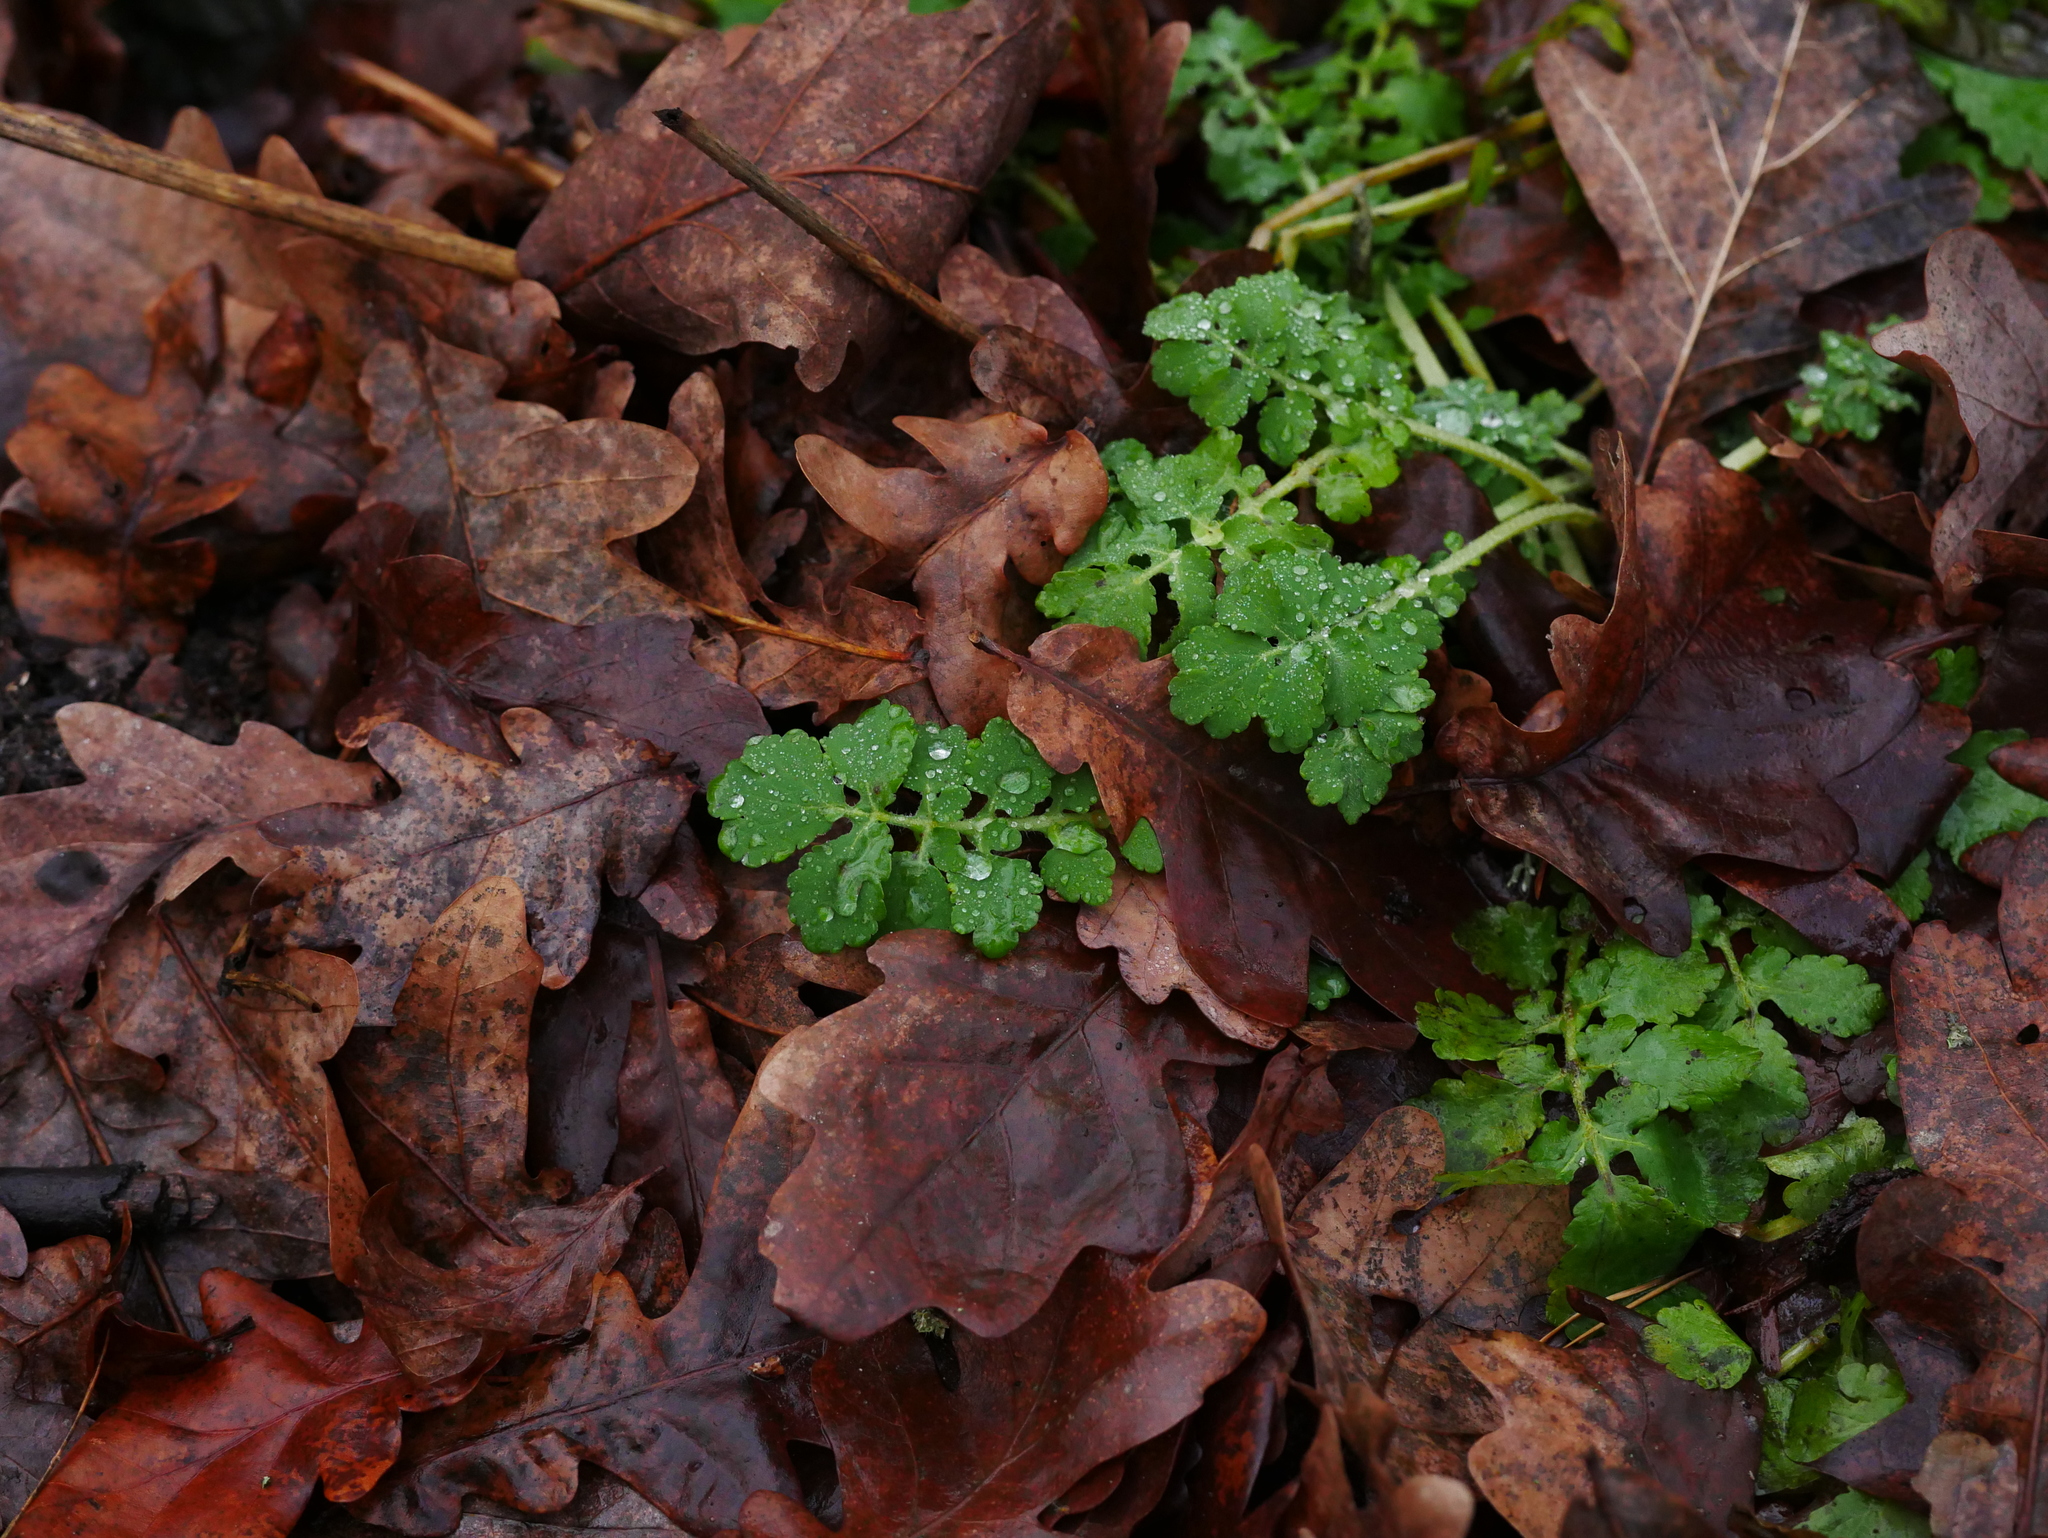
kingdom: Plantae
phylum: Tracheophyta
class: Magnoliopsida
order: Ranunculales
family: Papaveraceae
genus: Chelidonium
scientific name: Chelidonium majus
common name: Greater celandine
